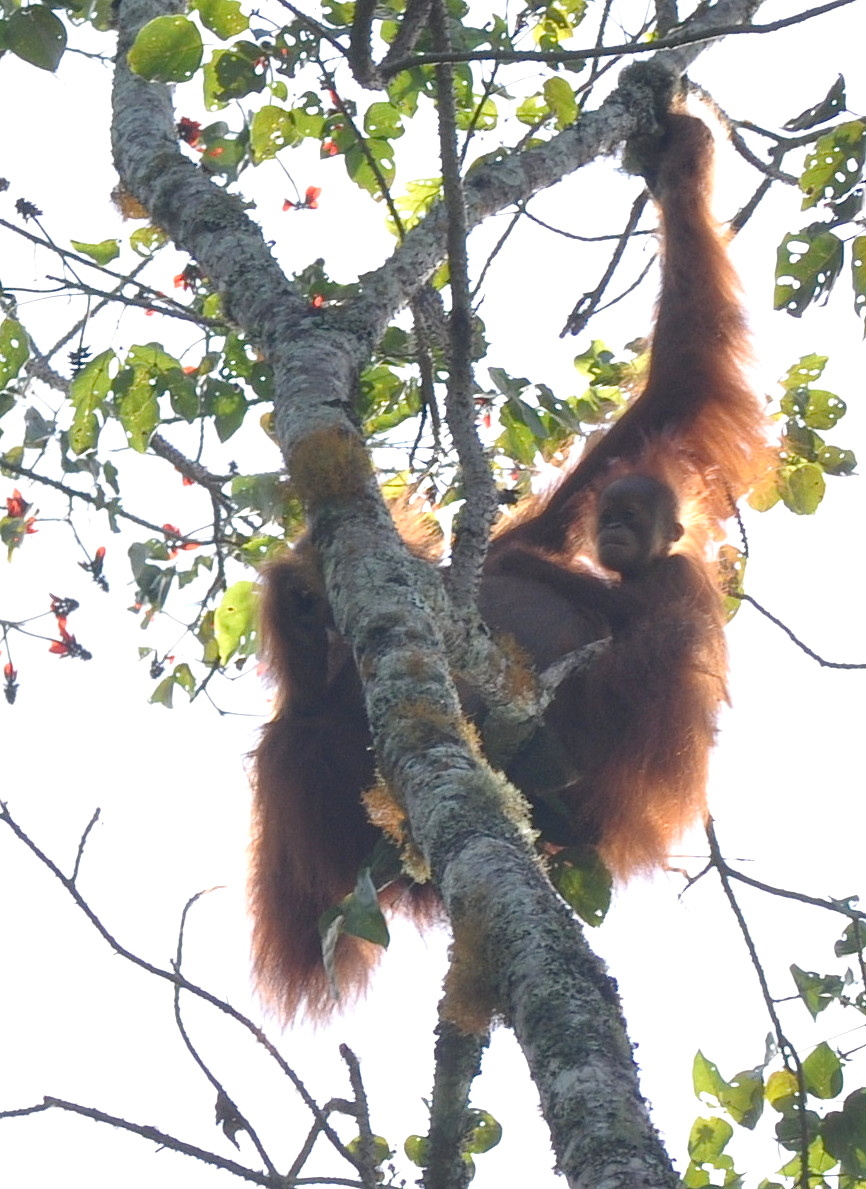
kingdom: Animalia
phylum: Chordata
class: Mammalia
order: Primates
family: Hominidae
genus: Pongo
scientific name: Pongo abelii
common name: Sumatran orangutan
